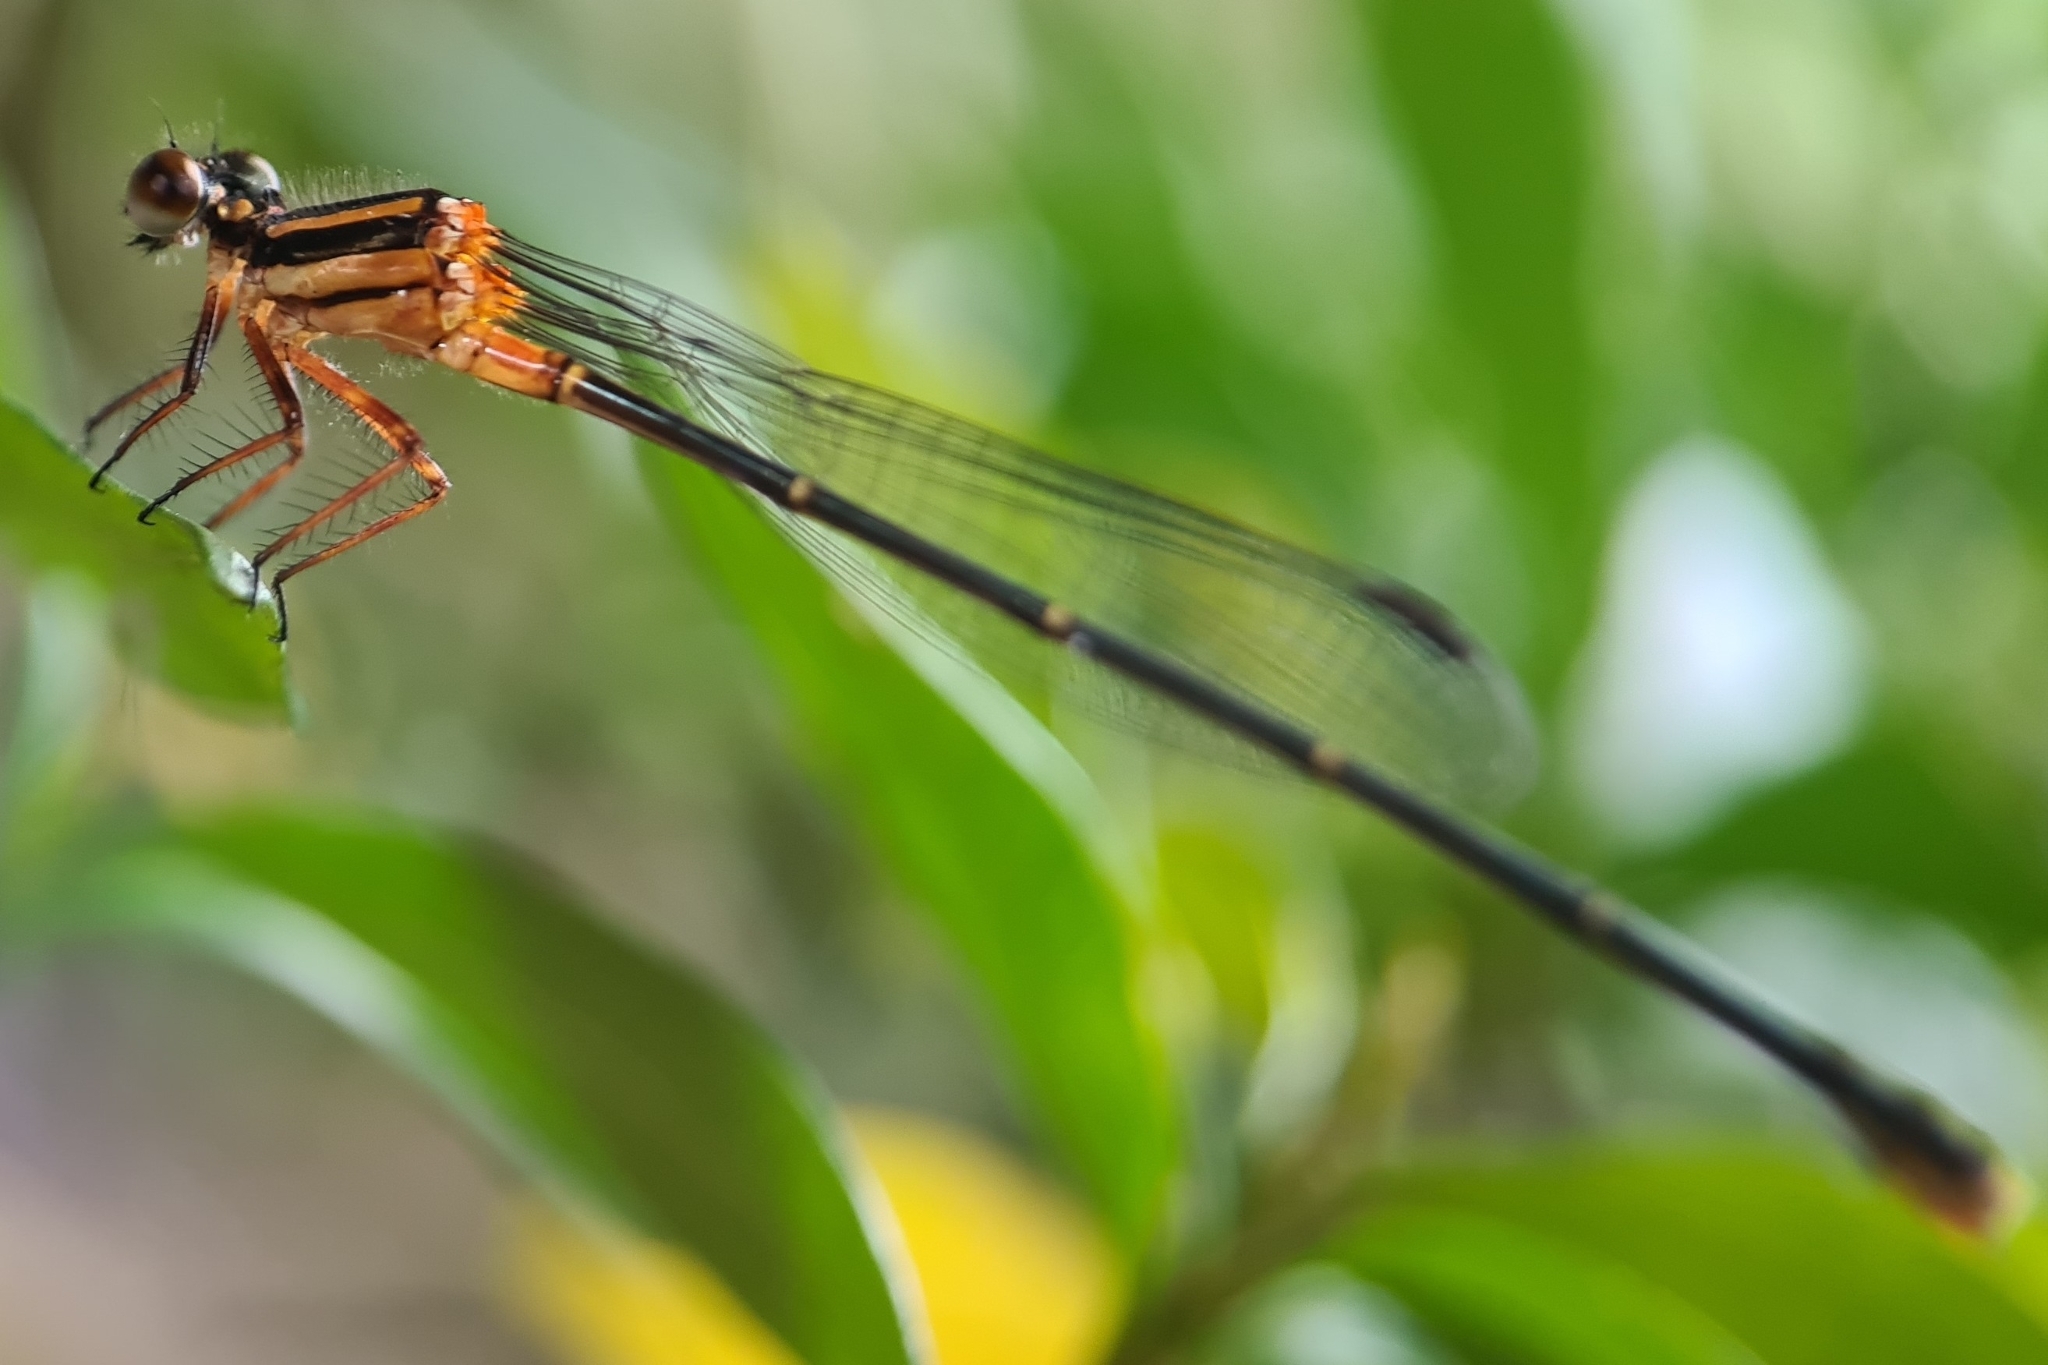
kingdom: Animalia
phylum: Arthropoda
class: Insecta
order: Odonata
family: Platycnemididae
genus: Nososticta
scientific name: Nososticta solida
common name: Orange threadtail
